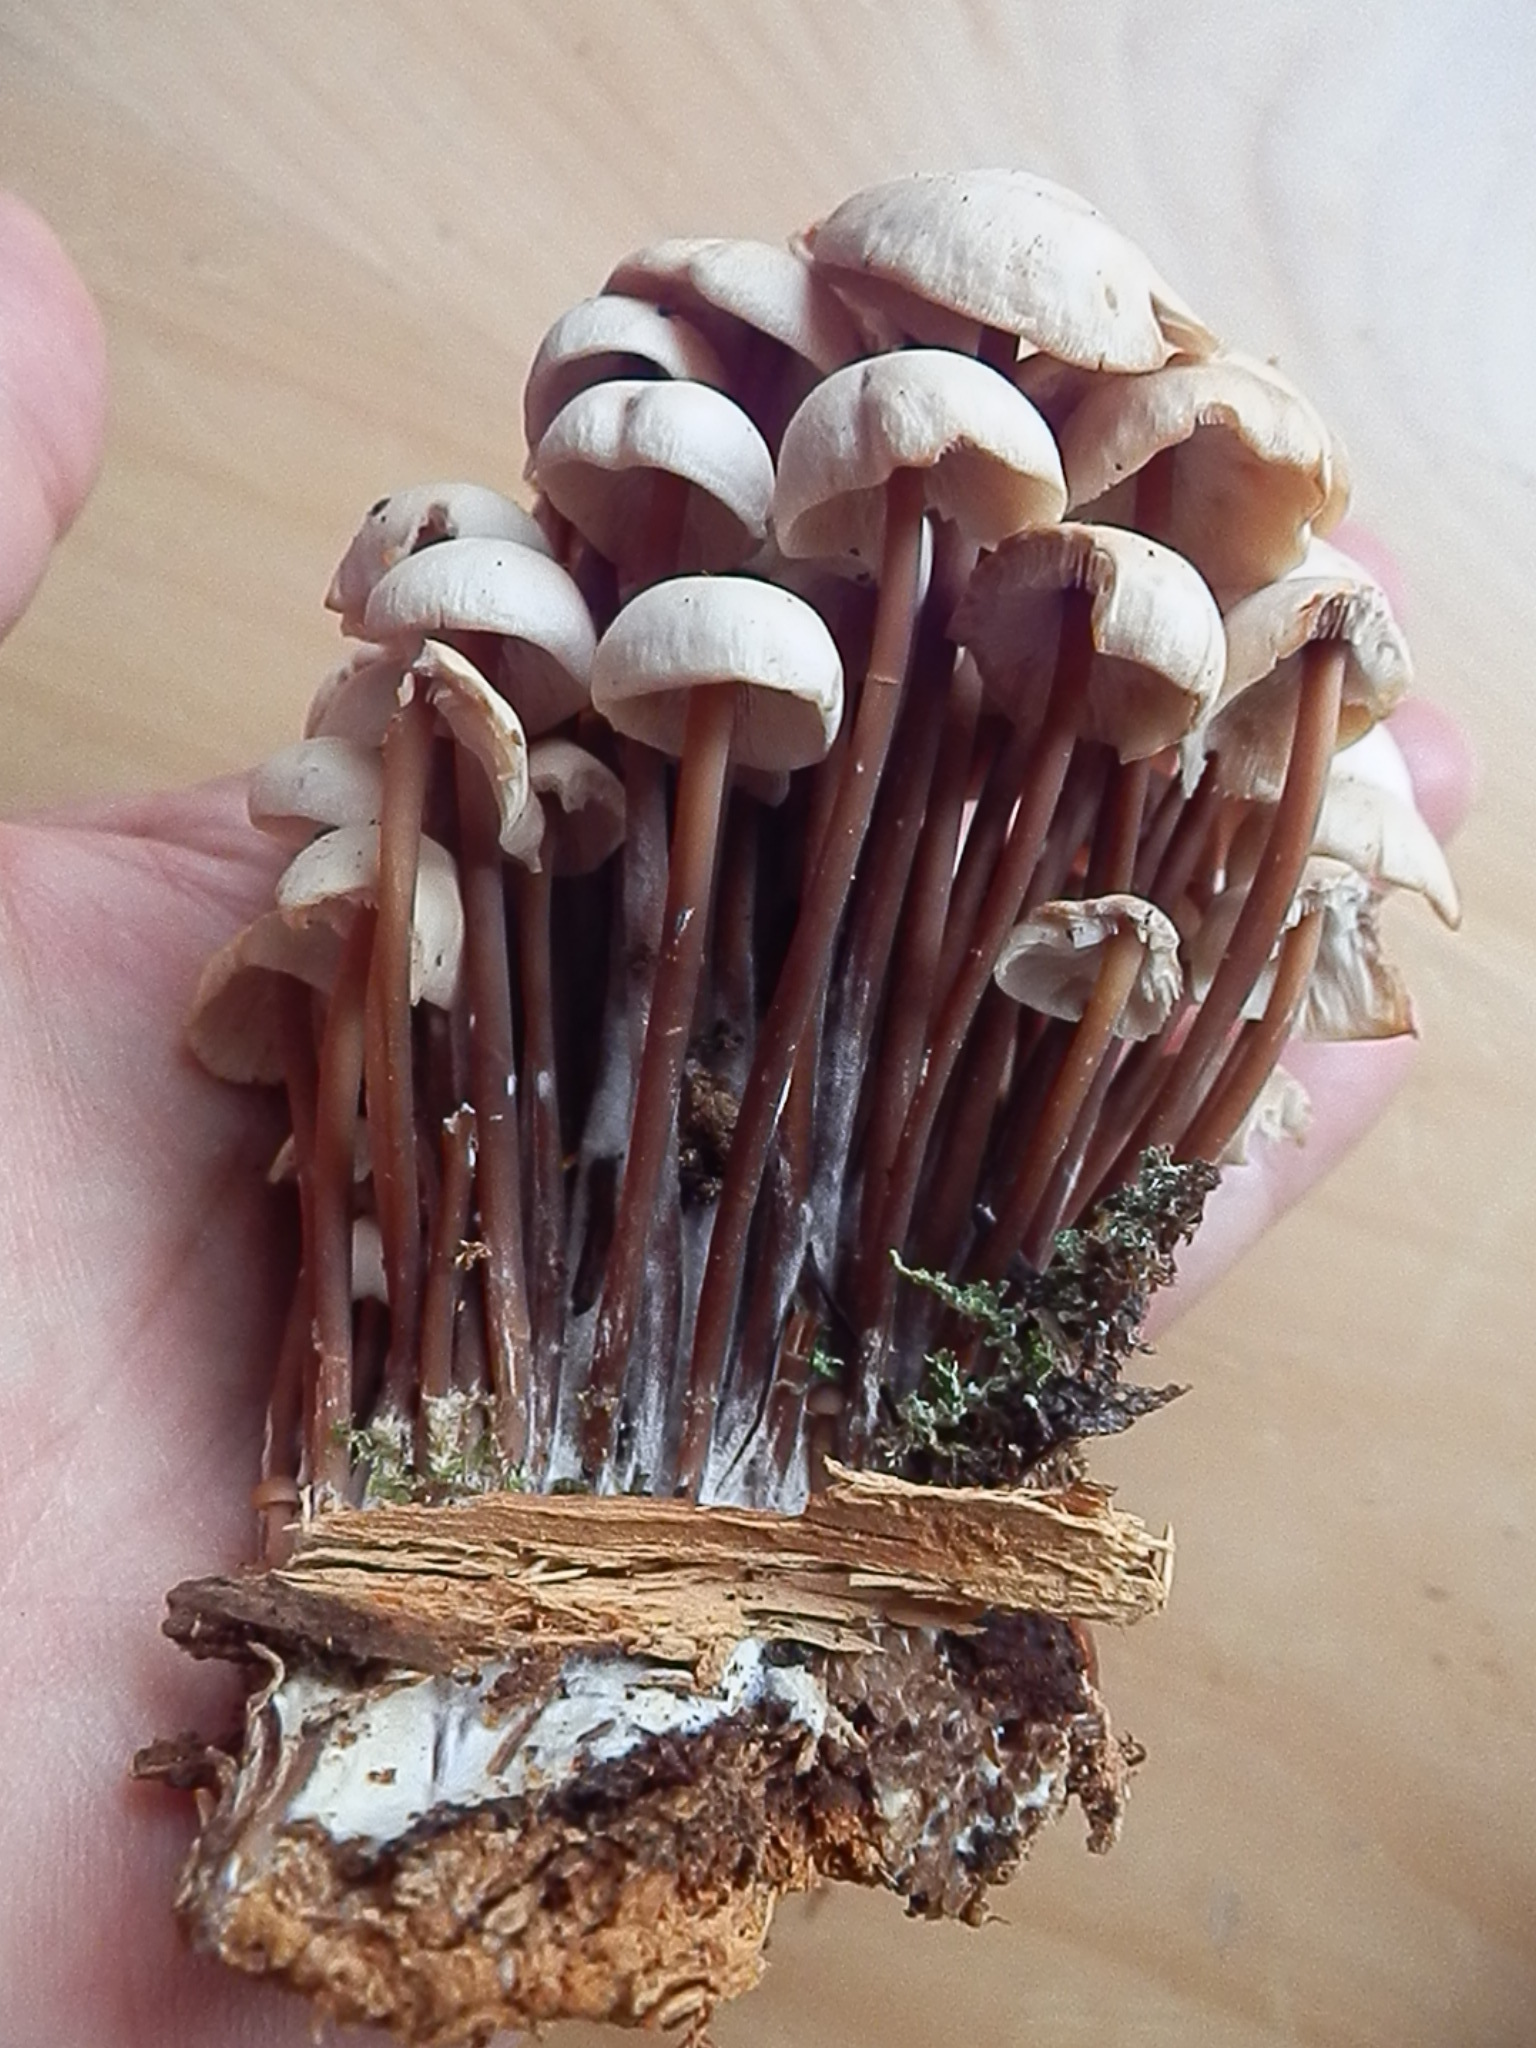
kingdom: Fungi
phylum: Basidiomycota
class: Agaricomycetes
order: Agaricales
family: Omphalotaceae
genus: Connopus
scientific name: Connopus acervatus
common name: Cluster cap
